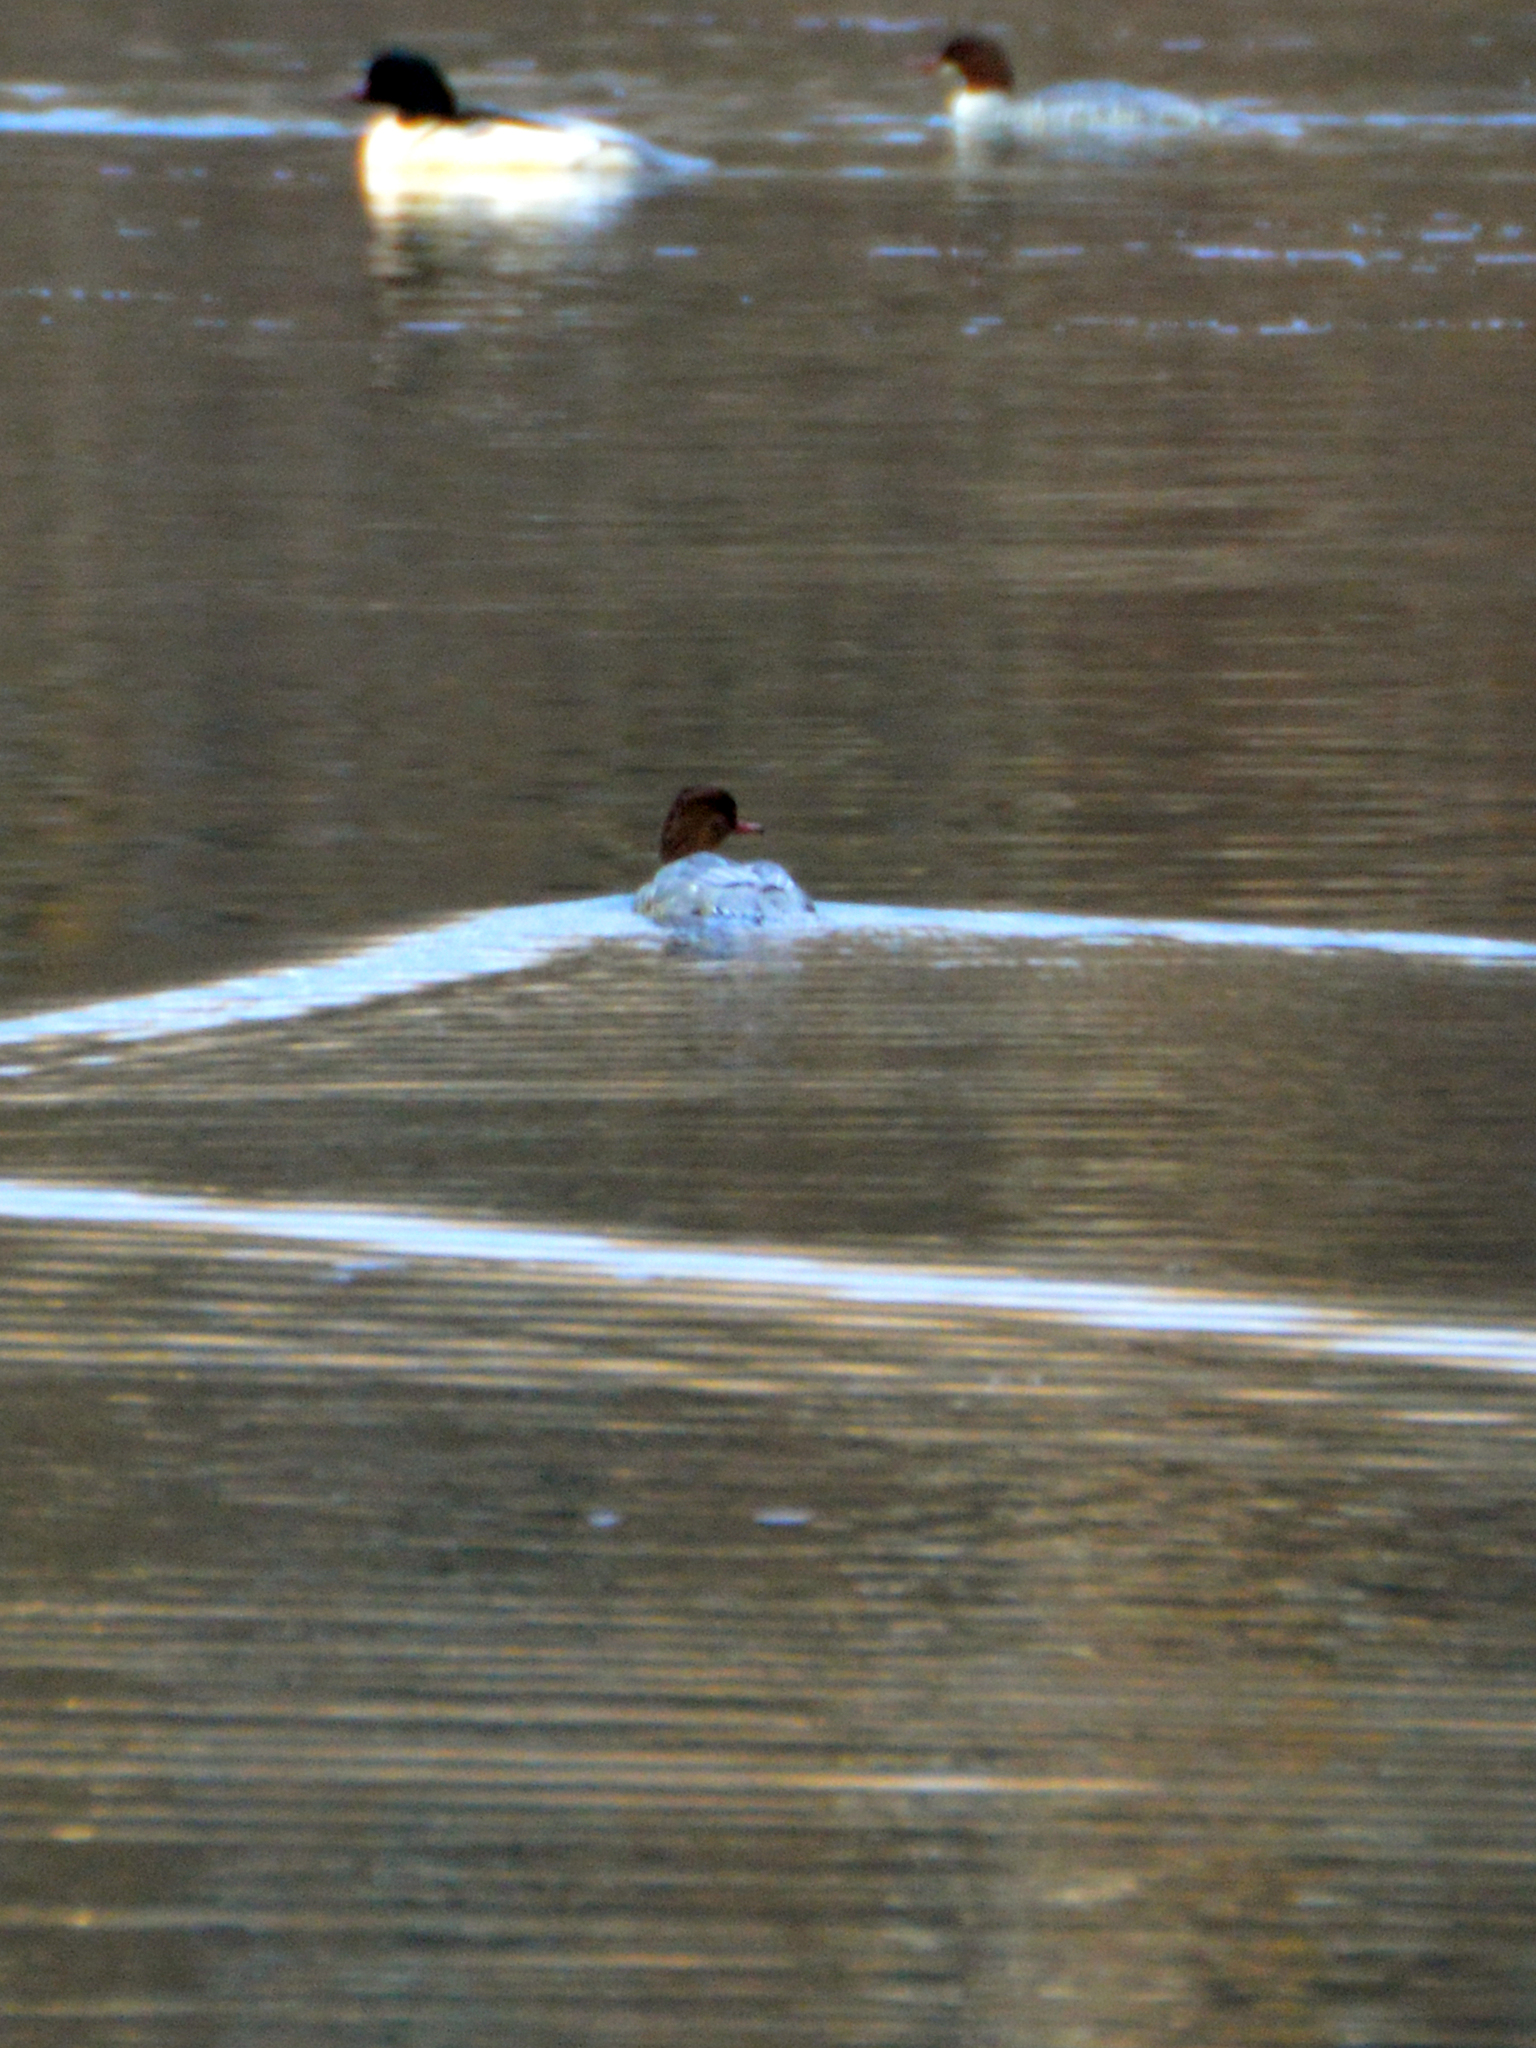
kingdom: Animalia
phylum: Chordata
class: Aves
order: Anseriformes
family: Anatidae
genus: Mergus
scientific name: Mergus merganser
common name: Common merganser
